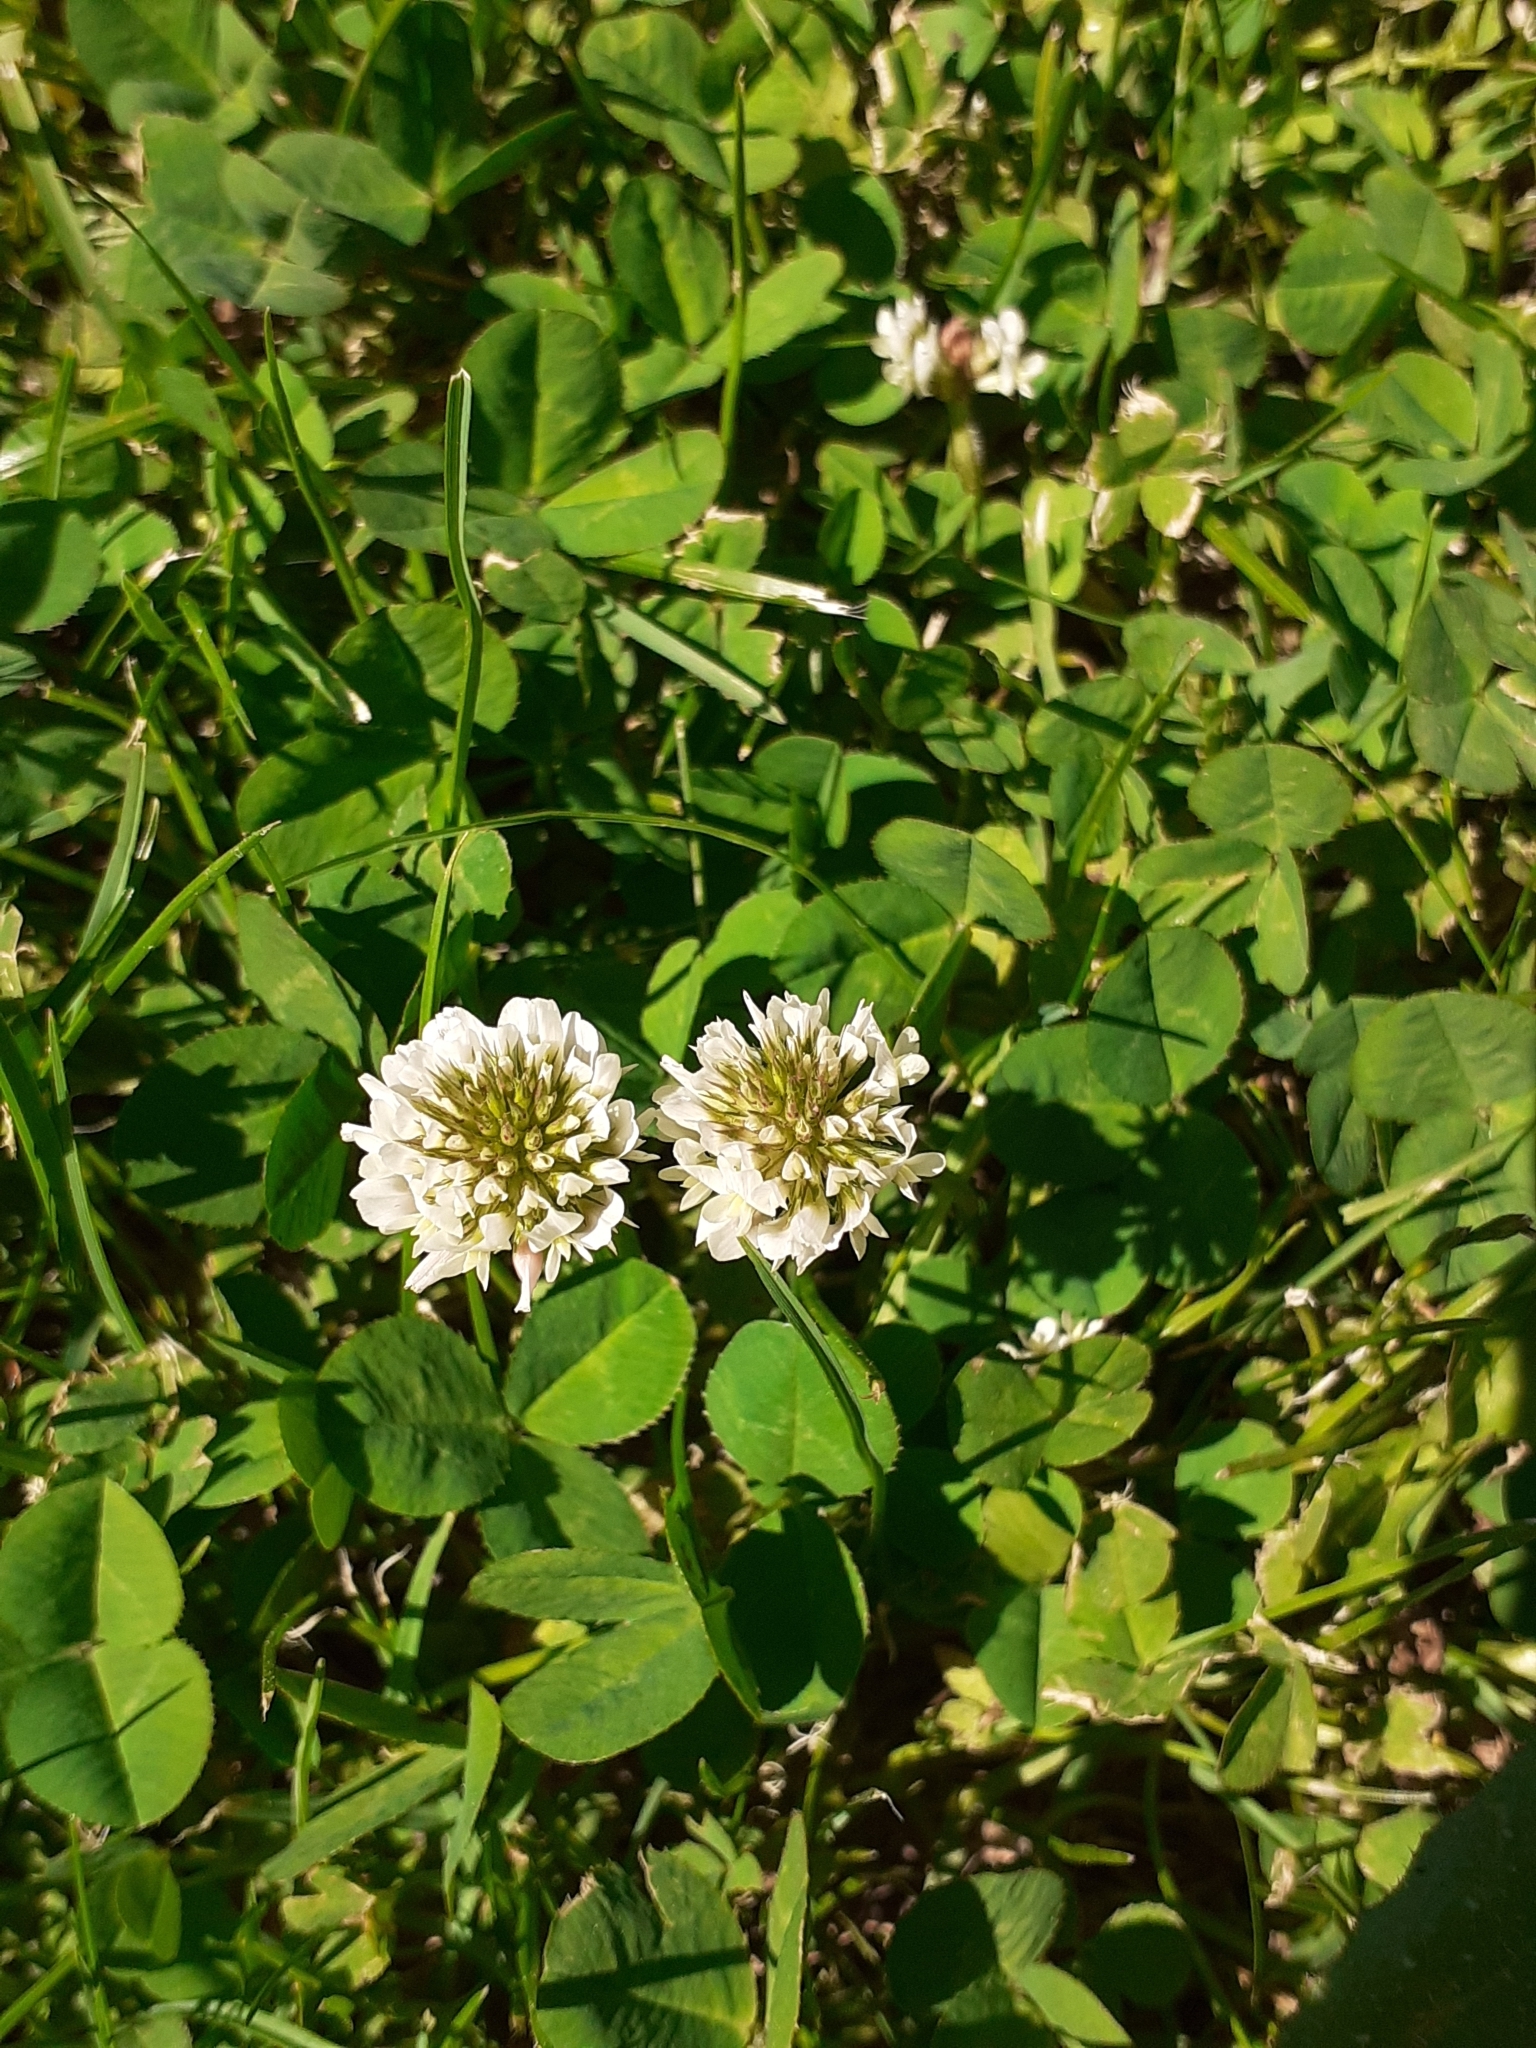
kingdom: Plantae
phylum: Tracheophyta
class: Magnoliopsida
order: Fabales
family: Fabaceae
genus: Trifolium
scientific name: Trifolium repens
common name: White clover
